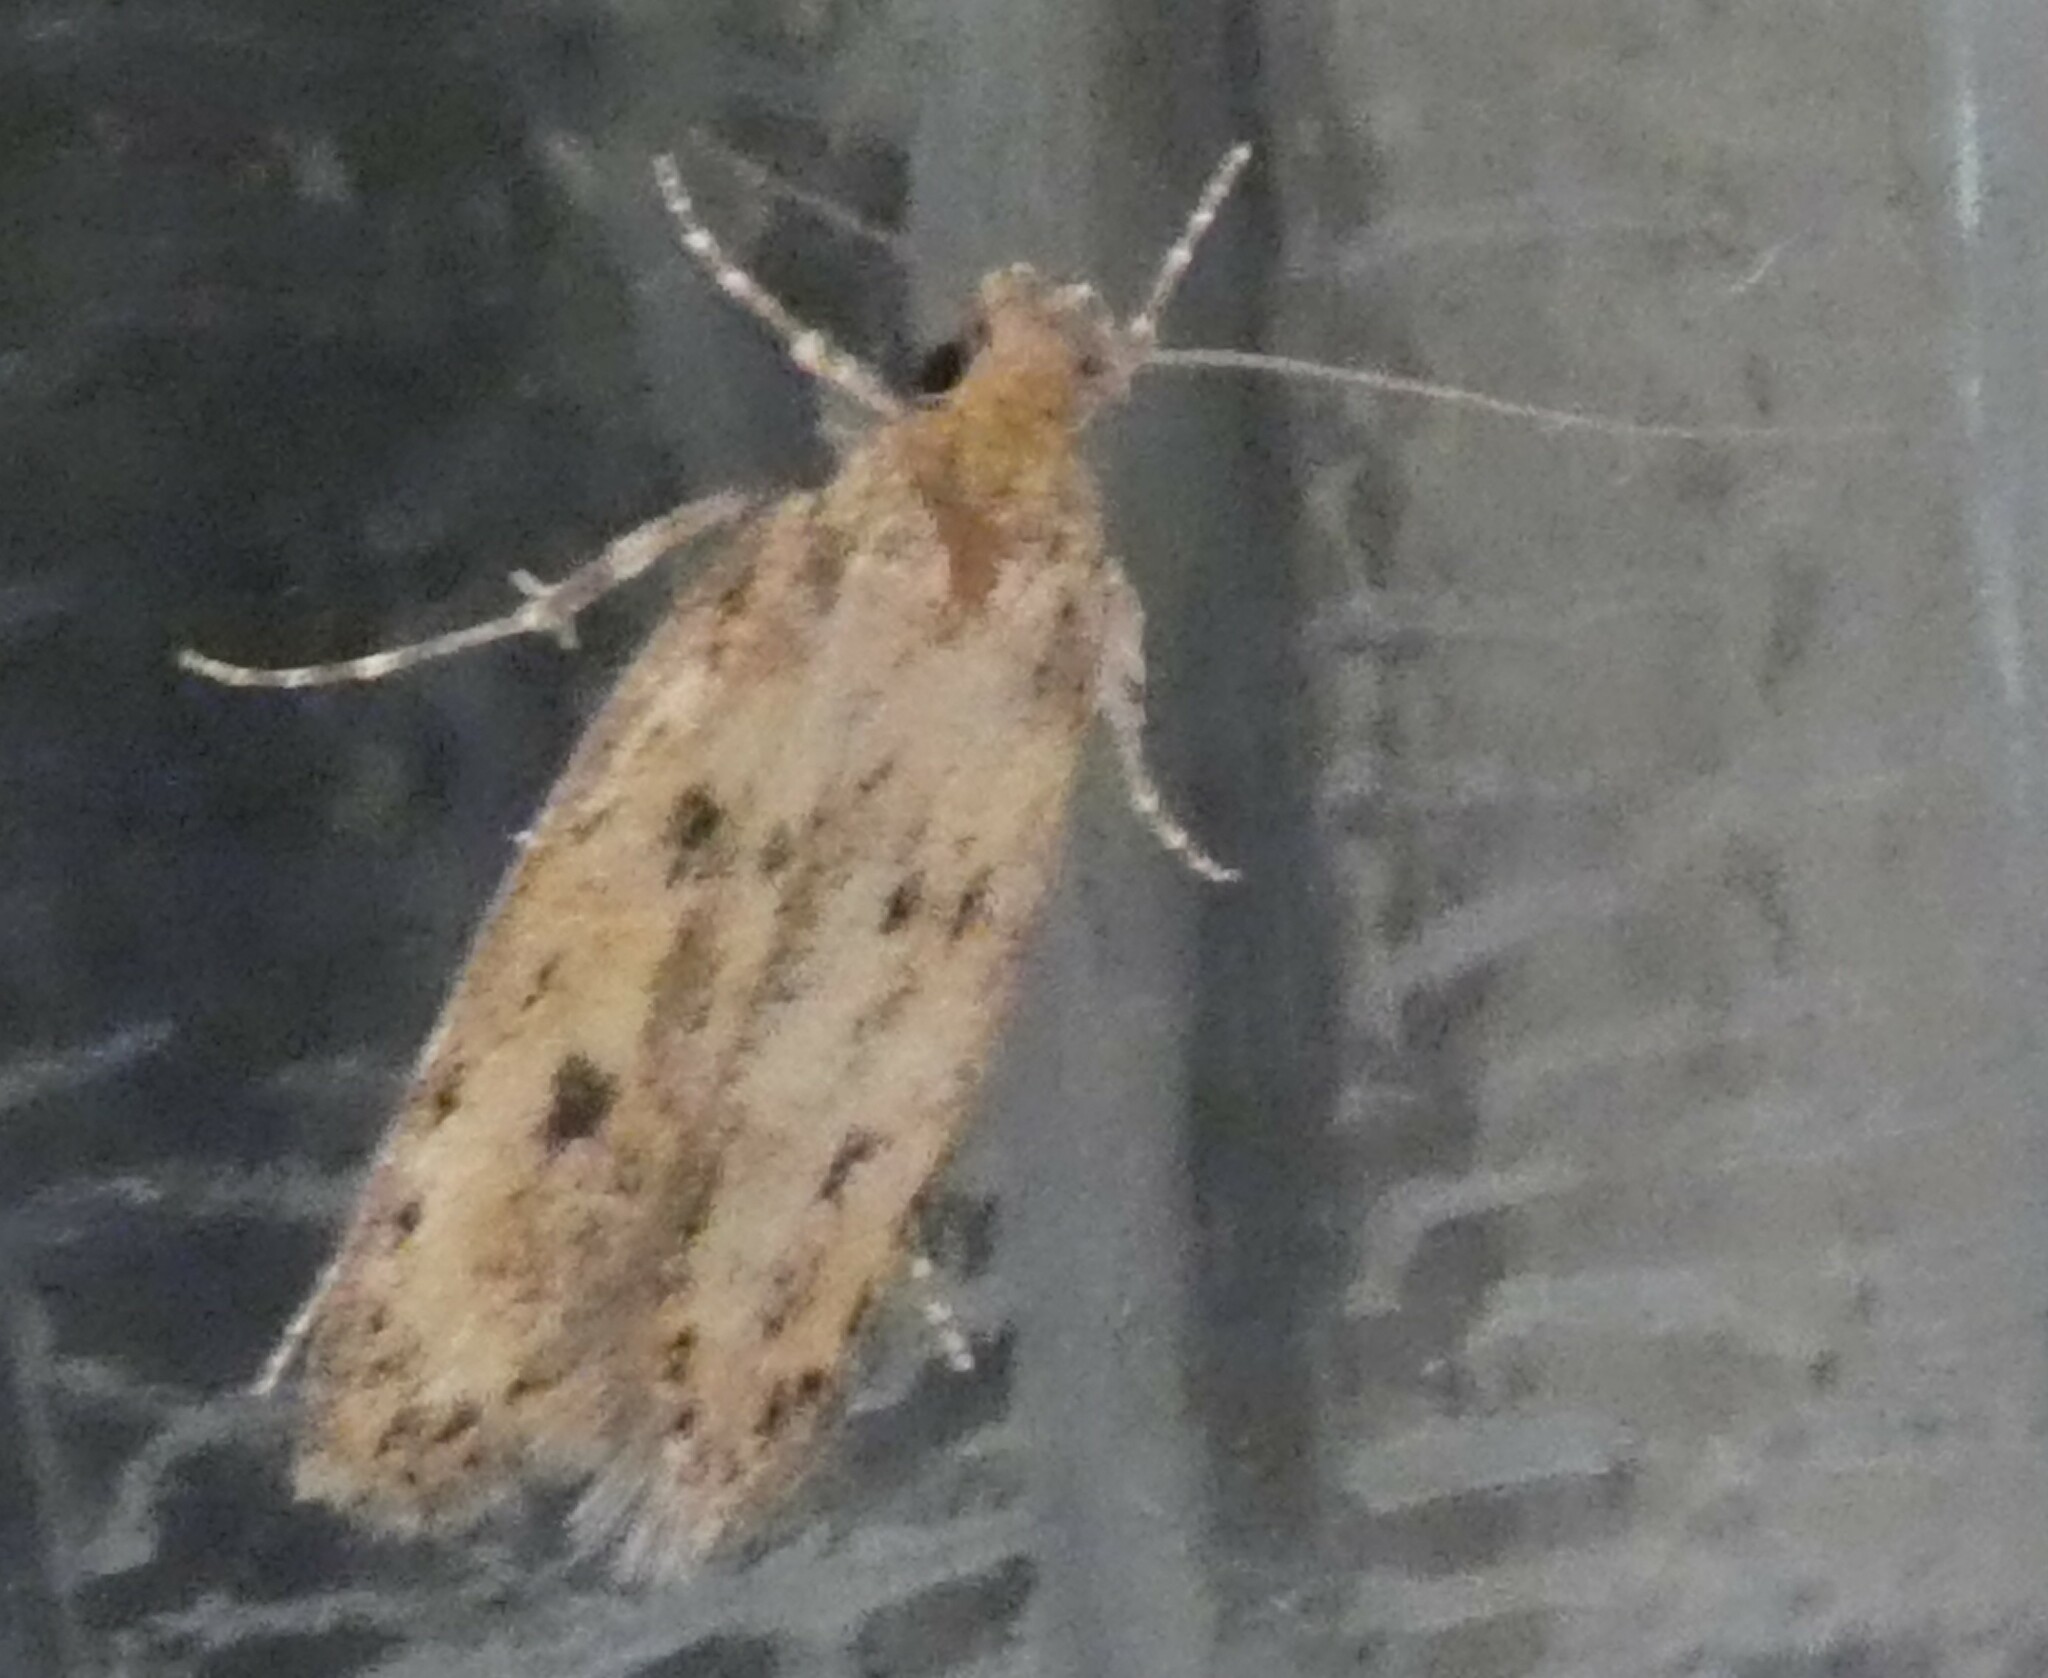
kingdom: Animalia
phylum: Arthropoda
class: Insecta
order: Lepidoptera
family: Oecophoridae
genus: Hofmannophila
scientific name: Hofmannophila pseudospretella
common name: Brown house moth
